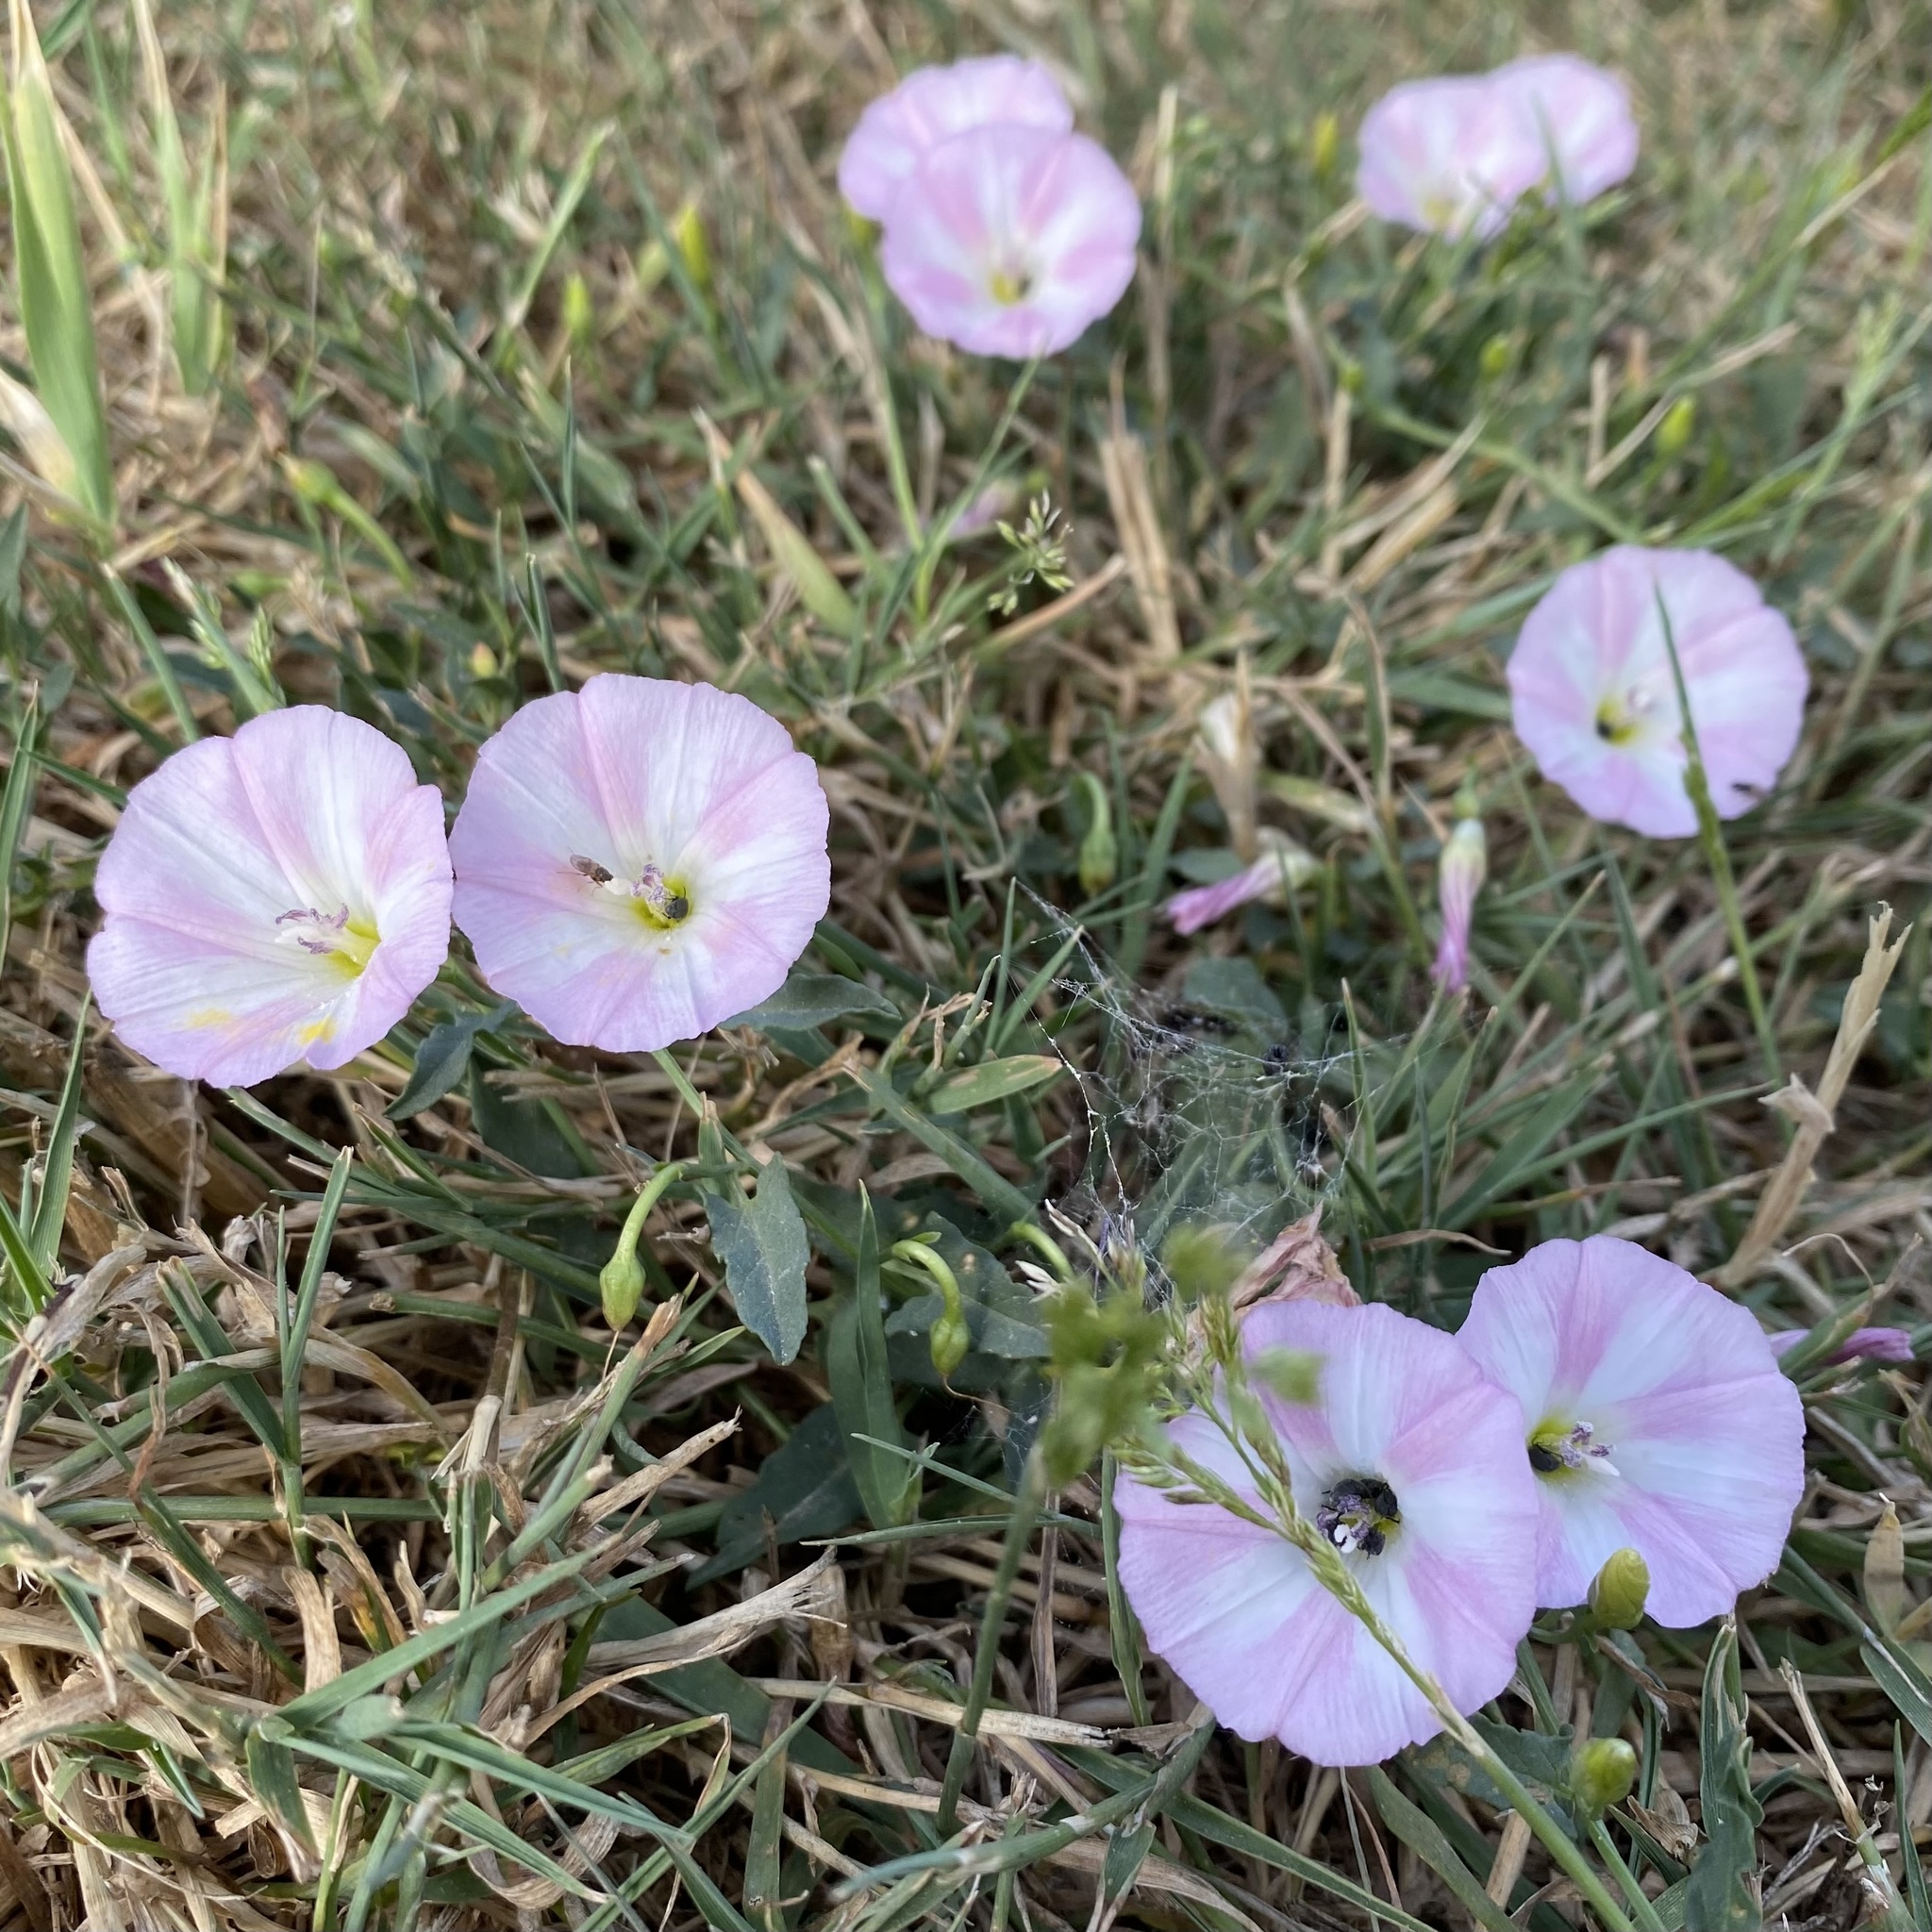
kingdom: Plantae
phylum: Tracheophyta
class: Magnoliopsida
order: Solanales
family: Convolvulaceae
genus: Convolvulus
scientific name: Convolvulus arvensis
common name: Field bindweed
